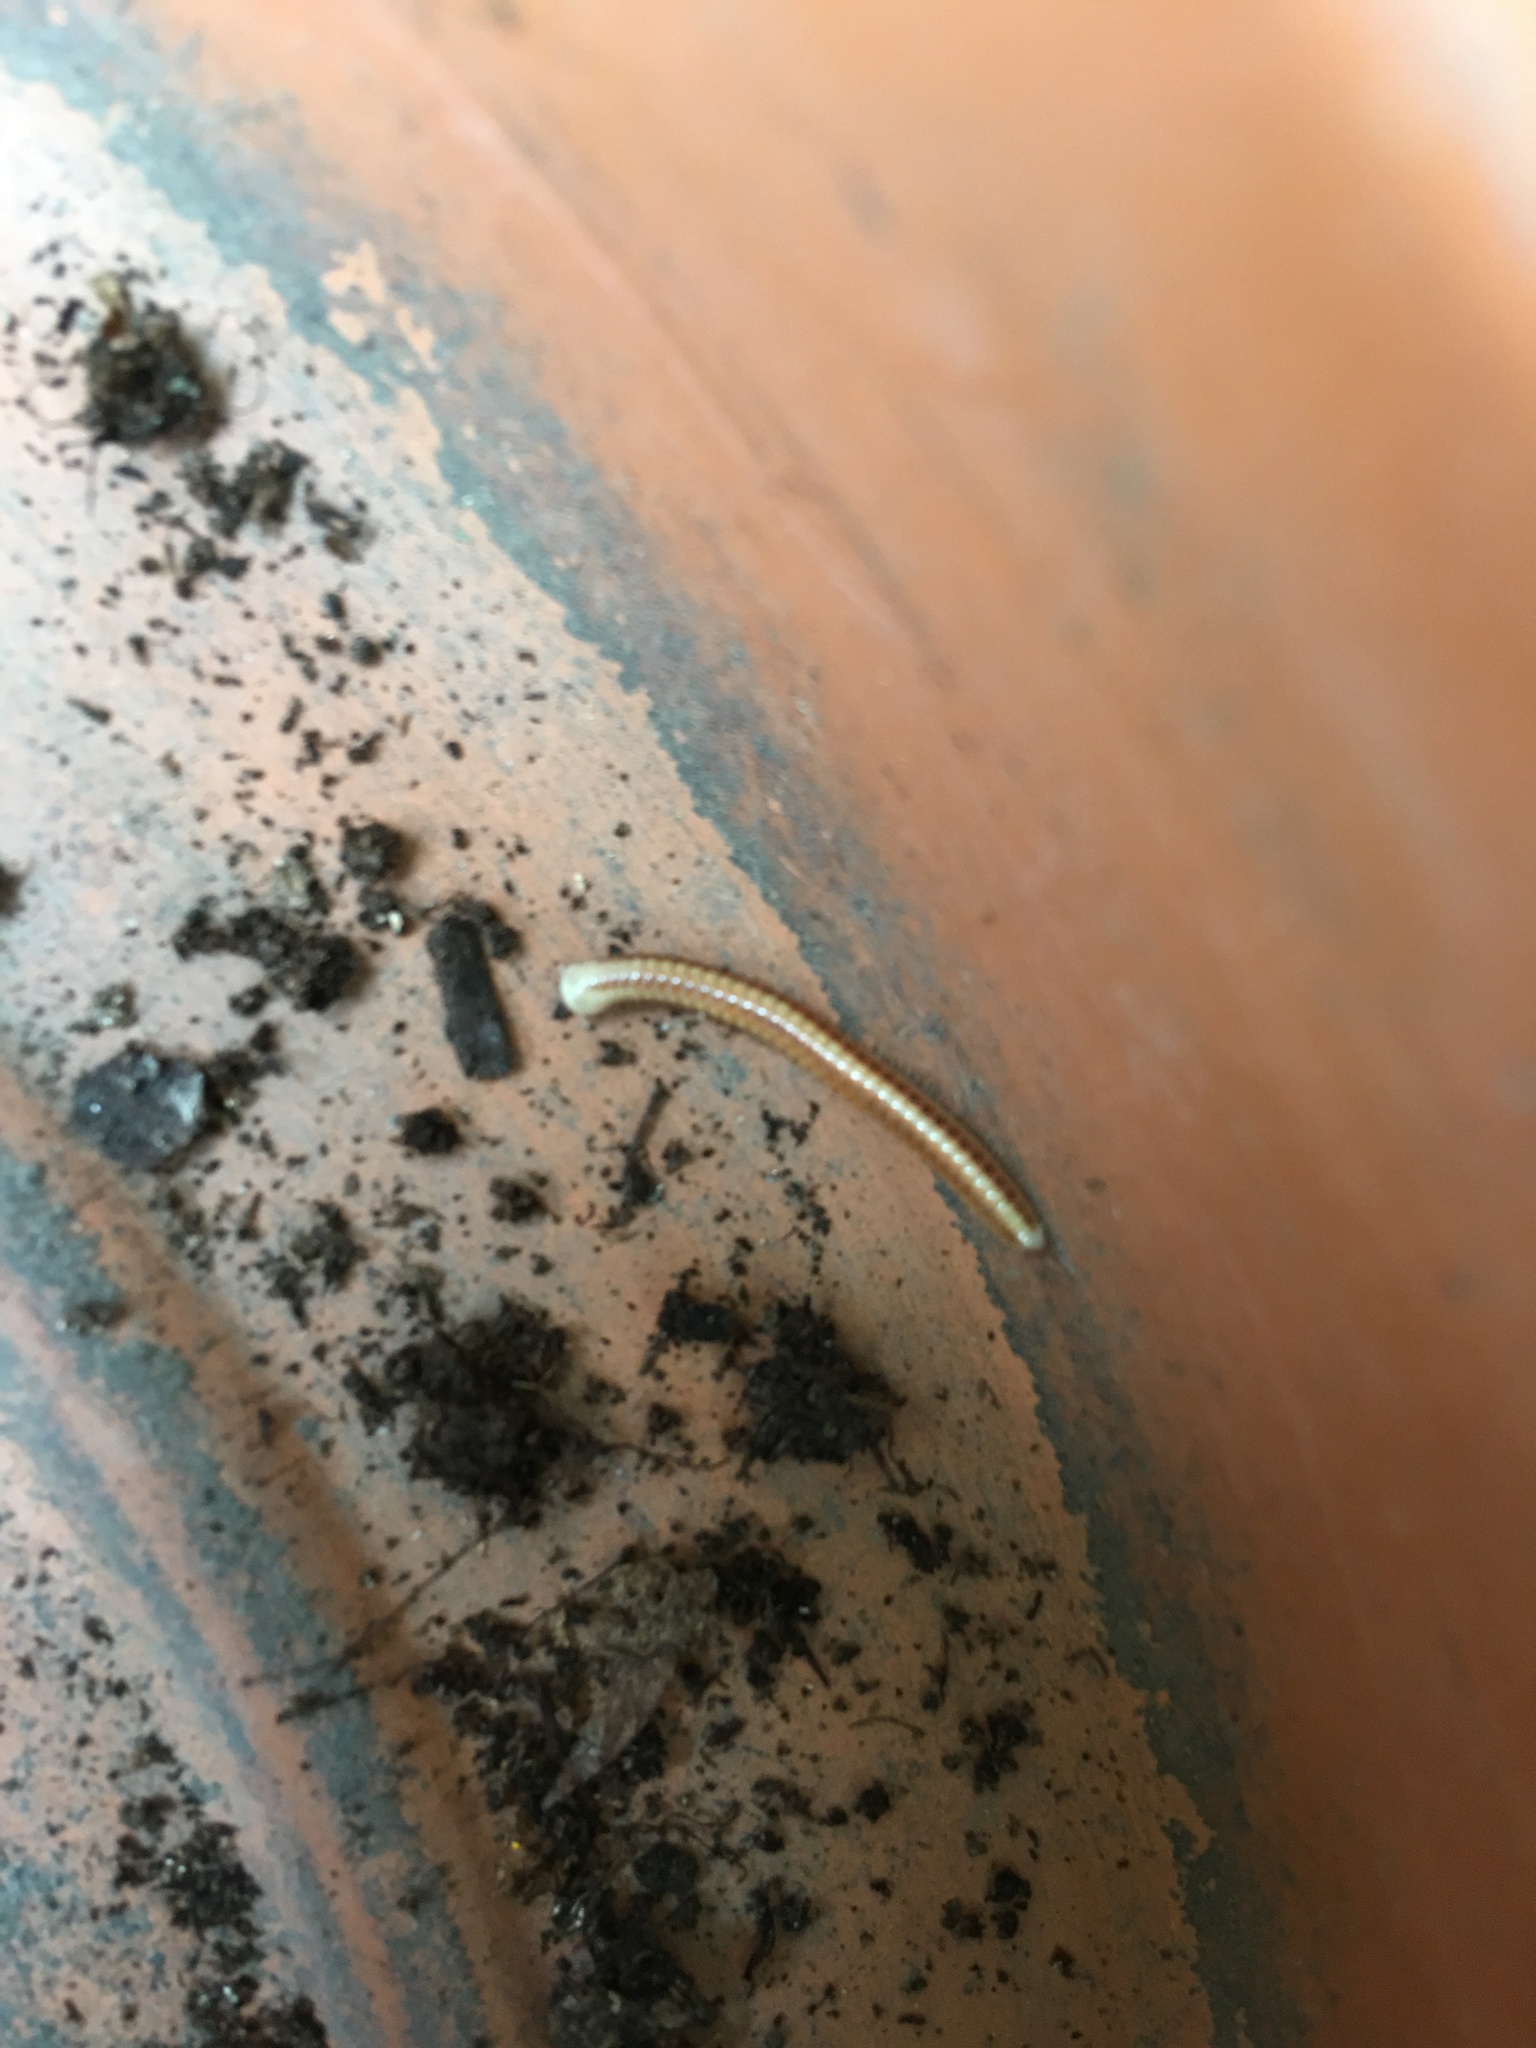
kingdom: Animalia
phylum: Arthropoda
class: Diplopoda
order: Spirobolida
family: Spirobolellidae
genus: Paraspirobolus
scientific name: Paraspirobolus lucifugus
